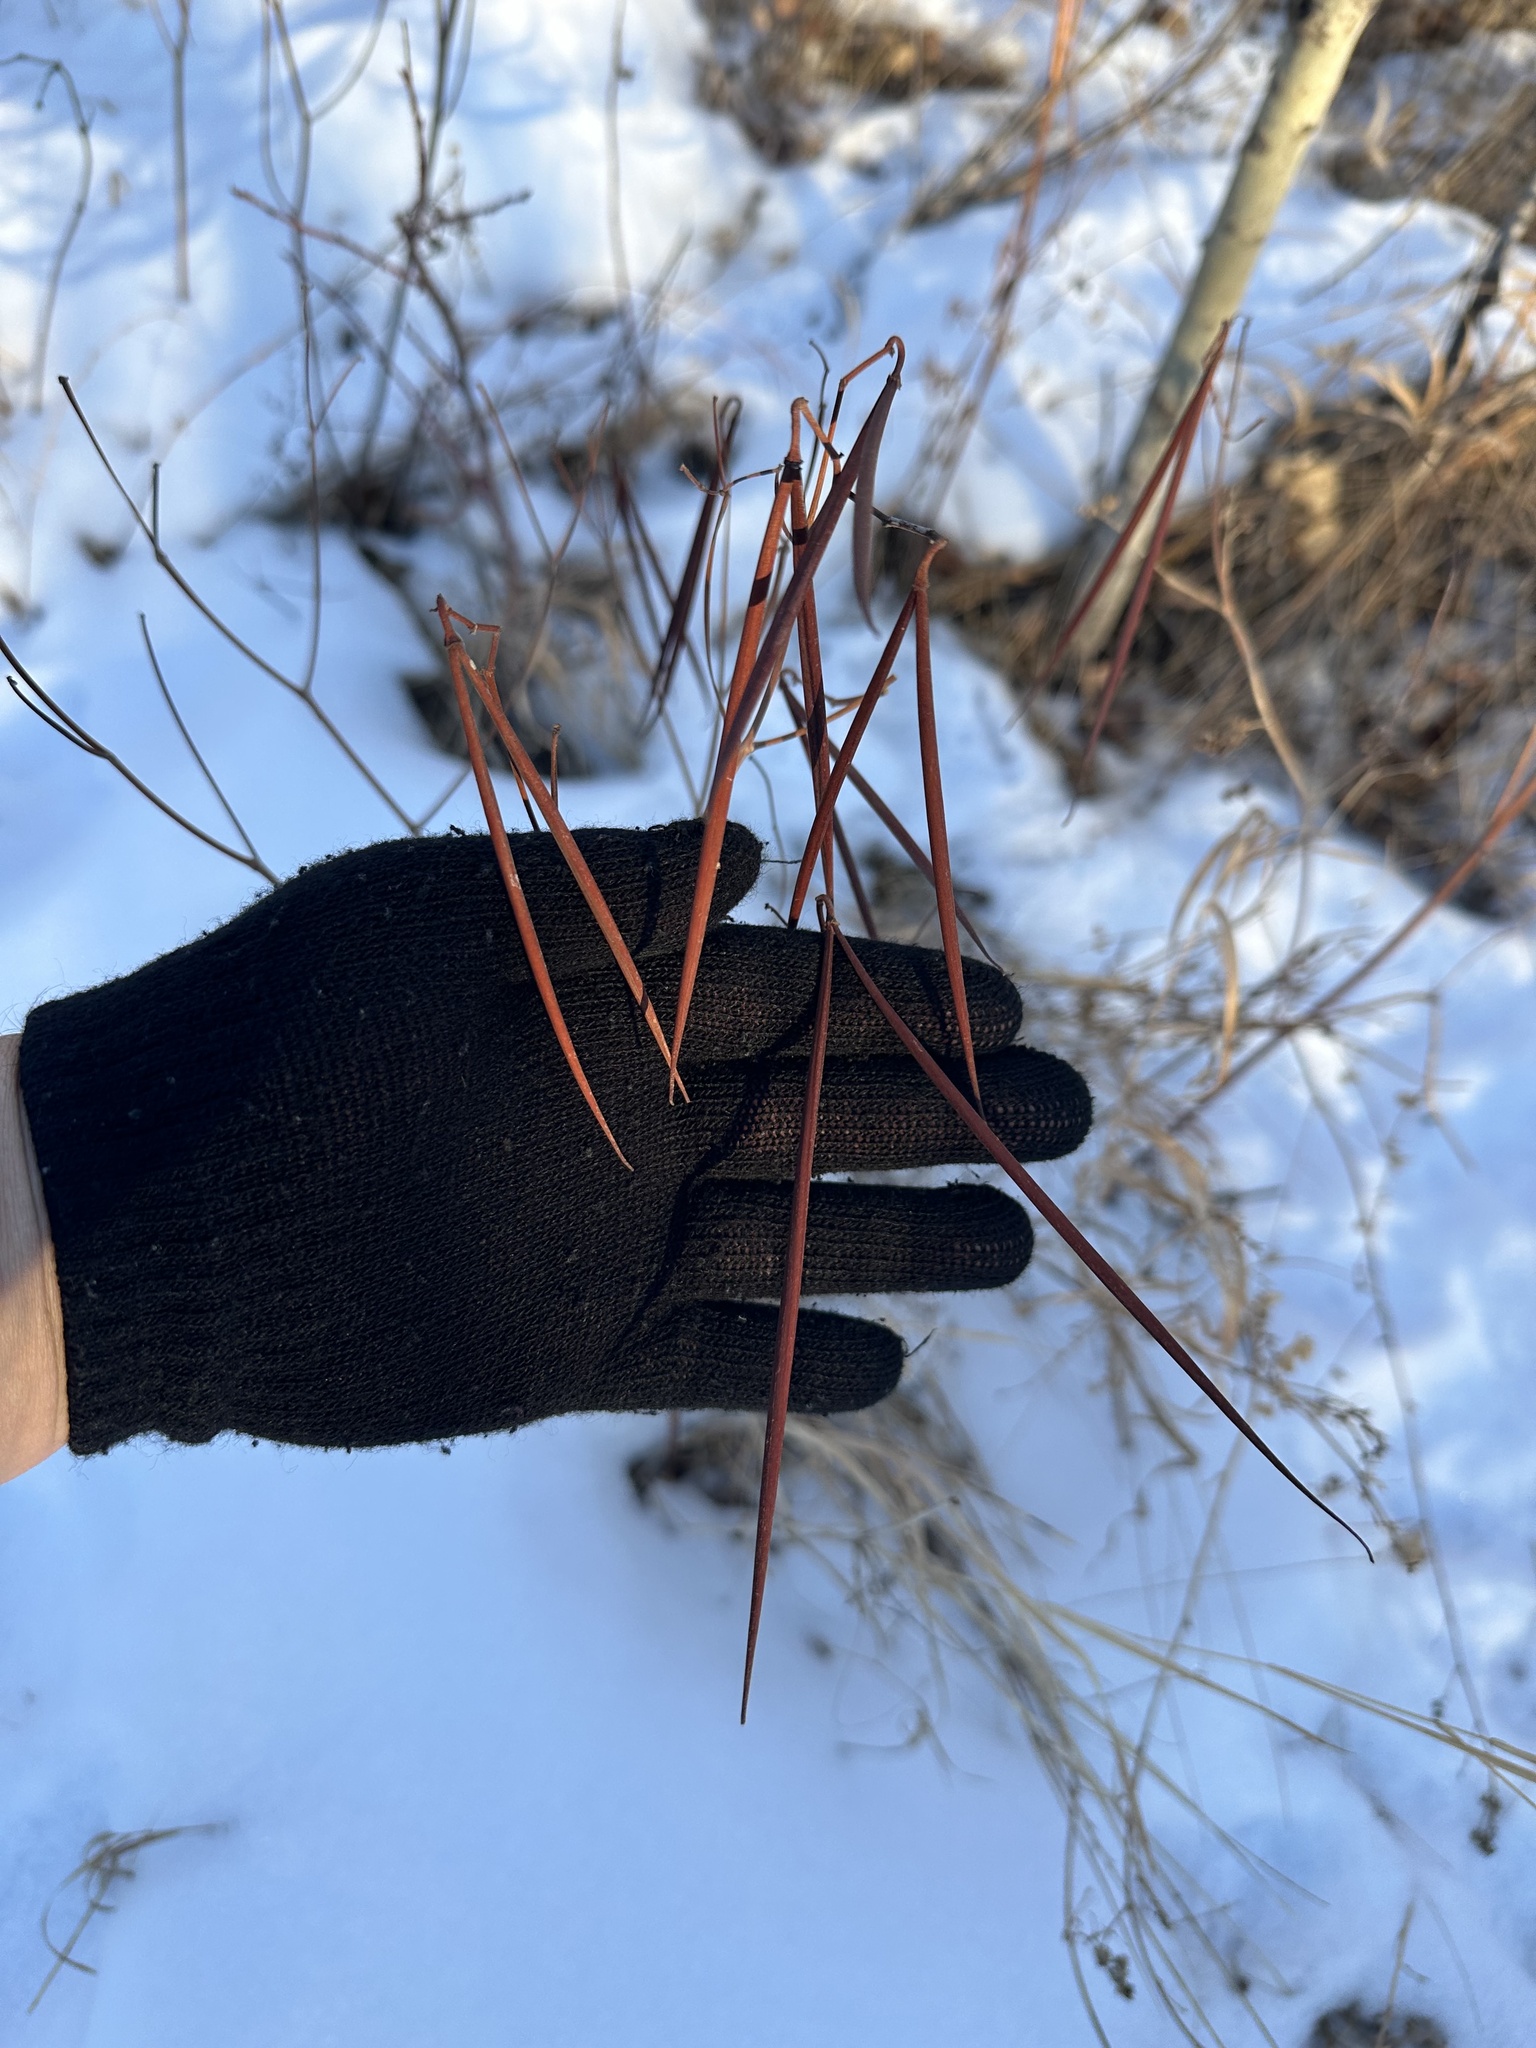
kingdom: Plantae
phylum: Tracheophyta
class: Magnoliopsida
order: Gentianales
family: Apocynaceae
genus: Apocynum
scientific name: Apocynum androsaemifolium
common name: Spreading dogbane
